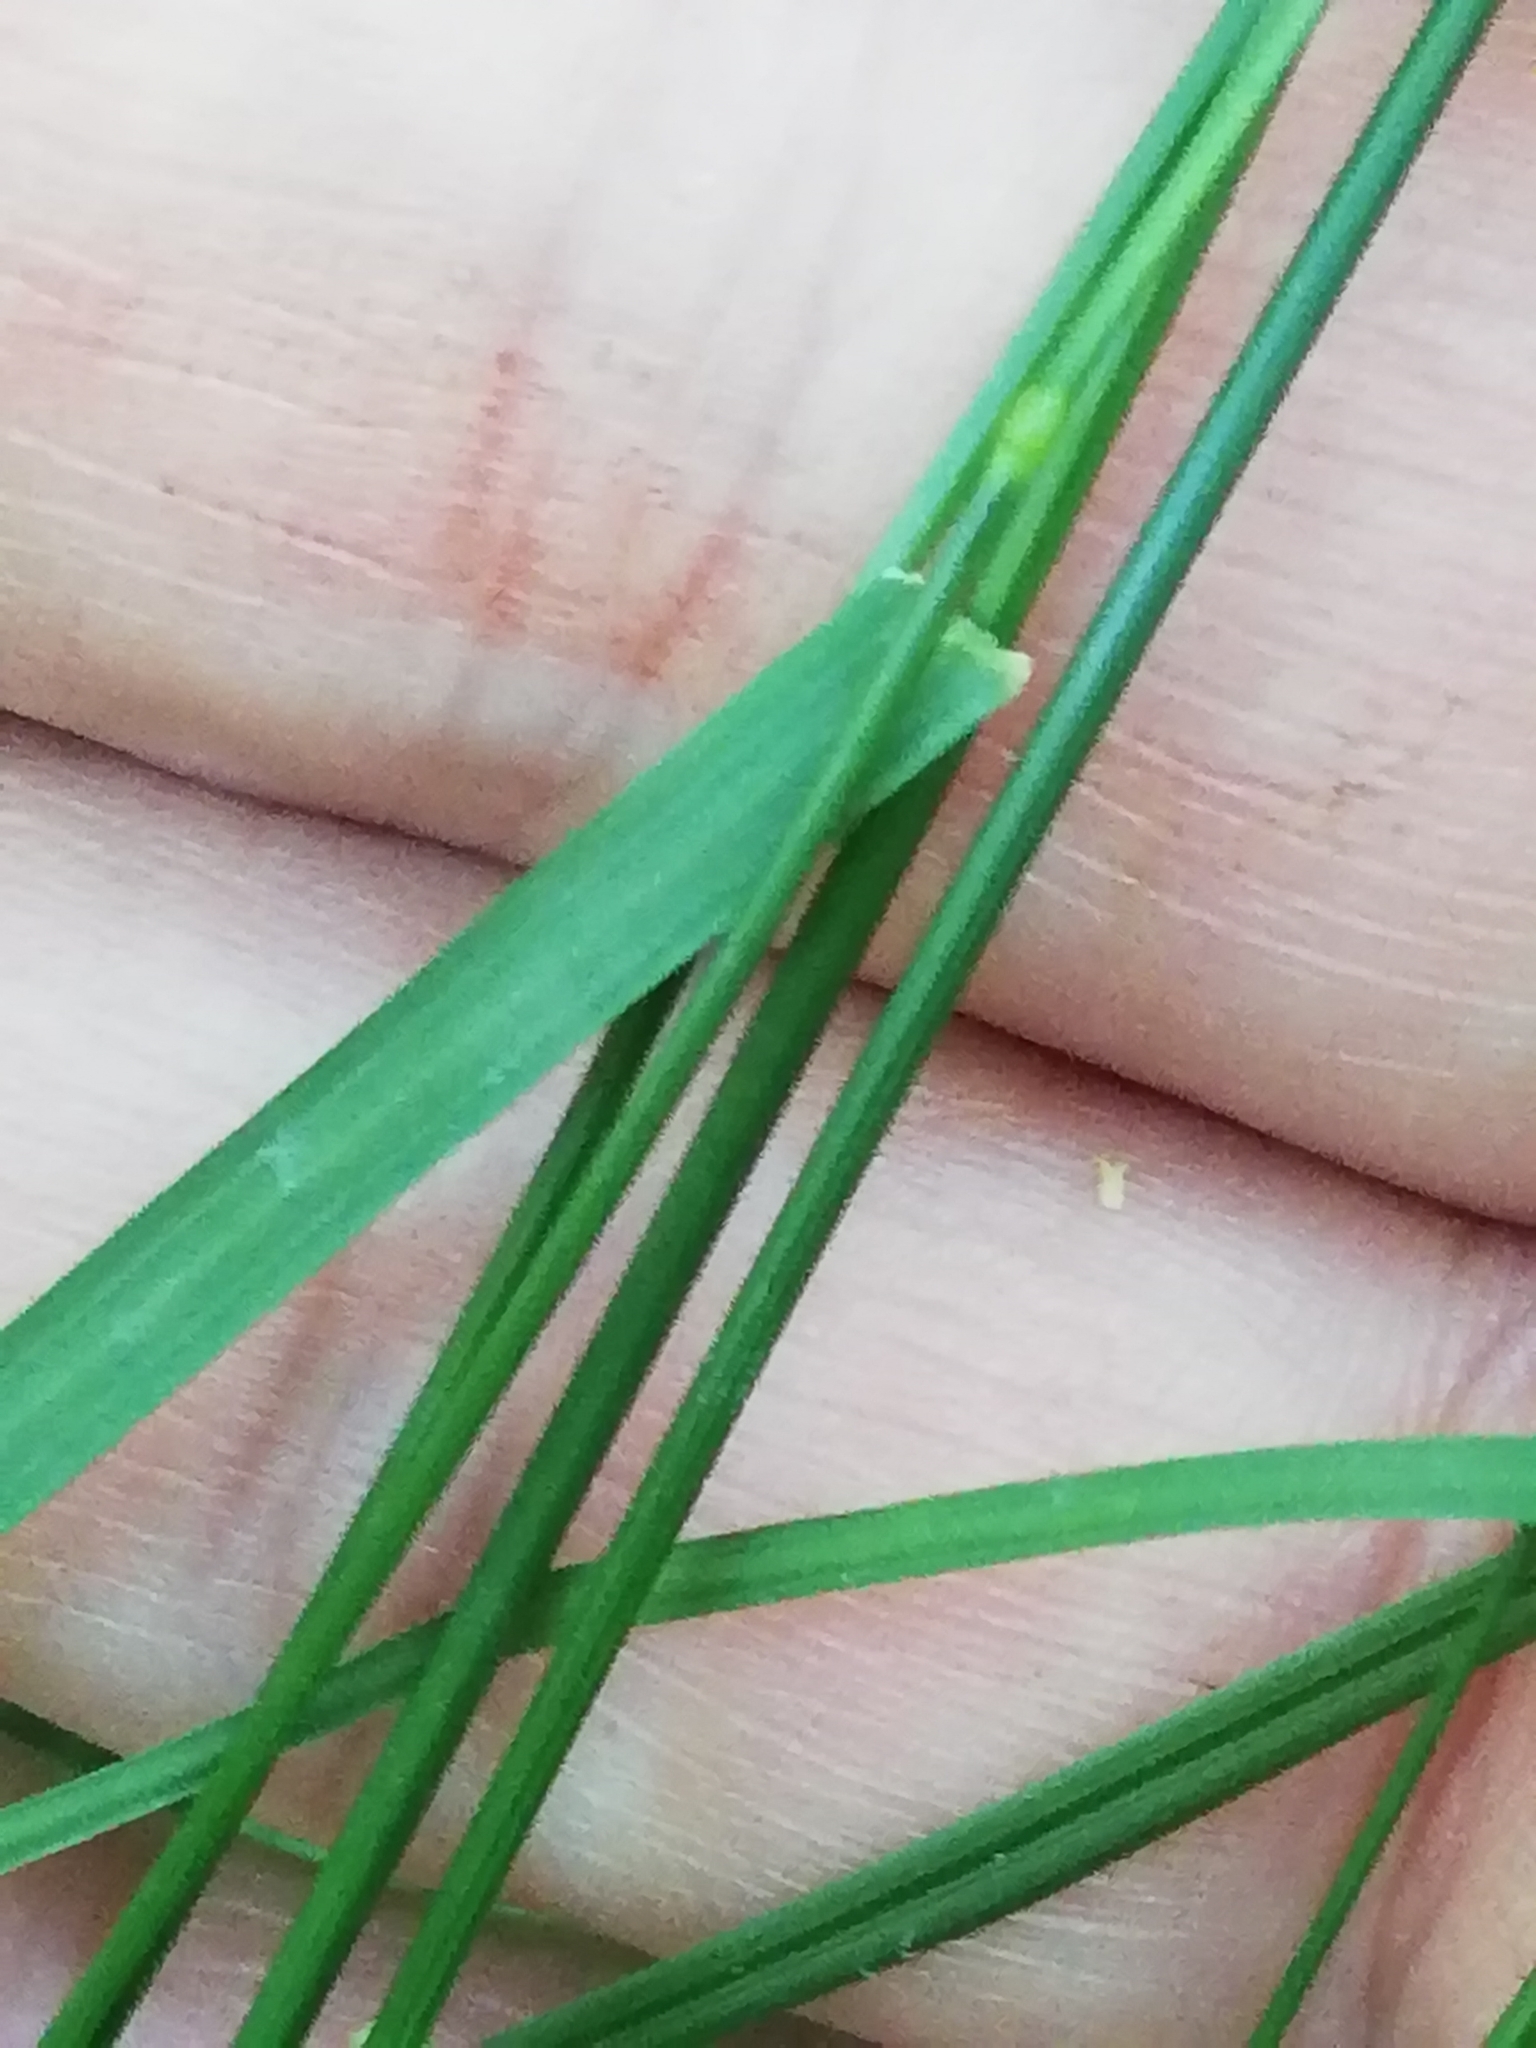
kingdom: Plantae
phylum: Tracheophyta
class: Liliopsida
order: Poales
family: Poaceae
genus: Poa
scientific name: Poa nemoralis
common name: Wood bluegrass
